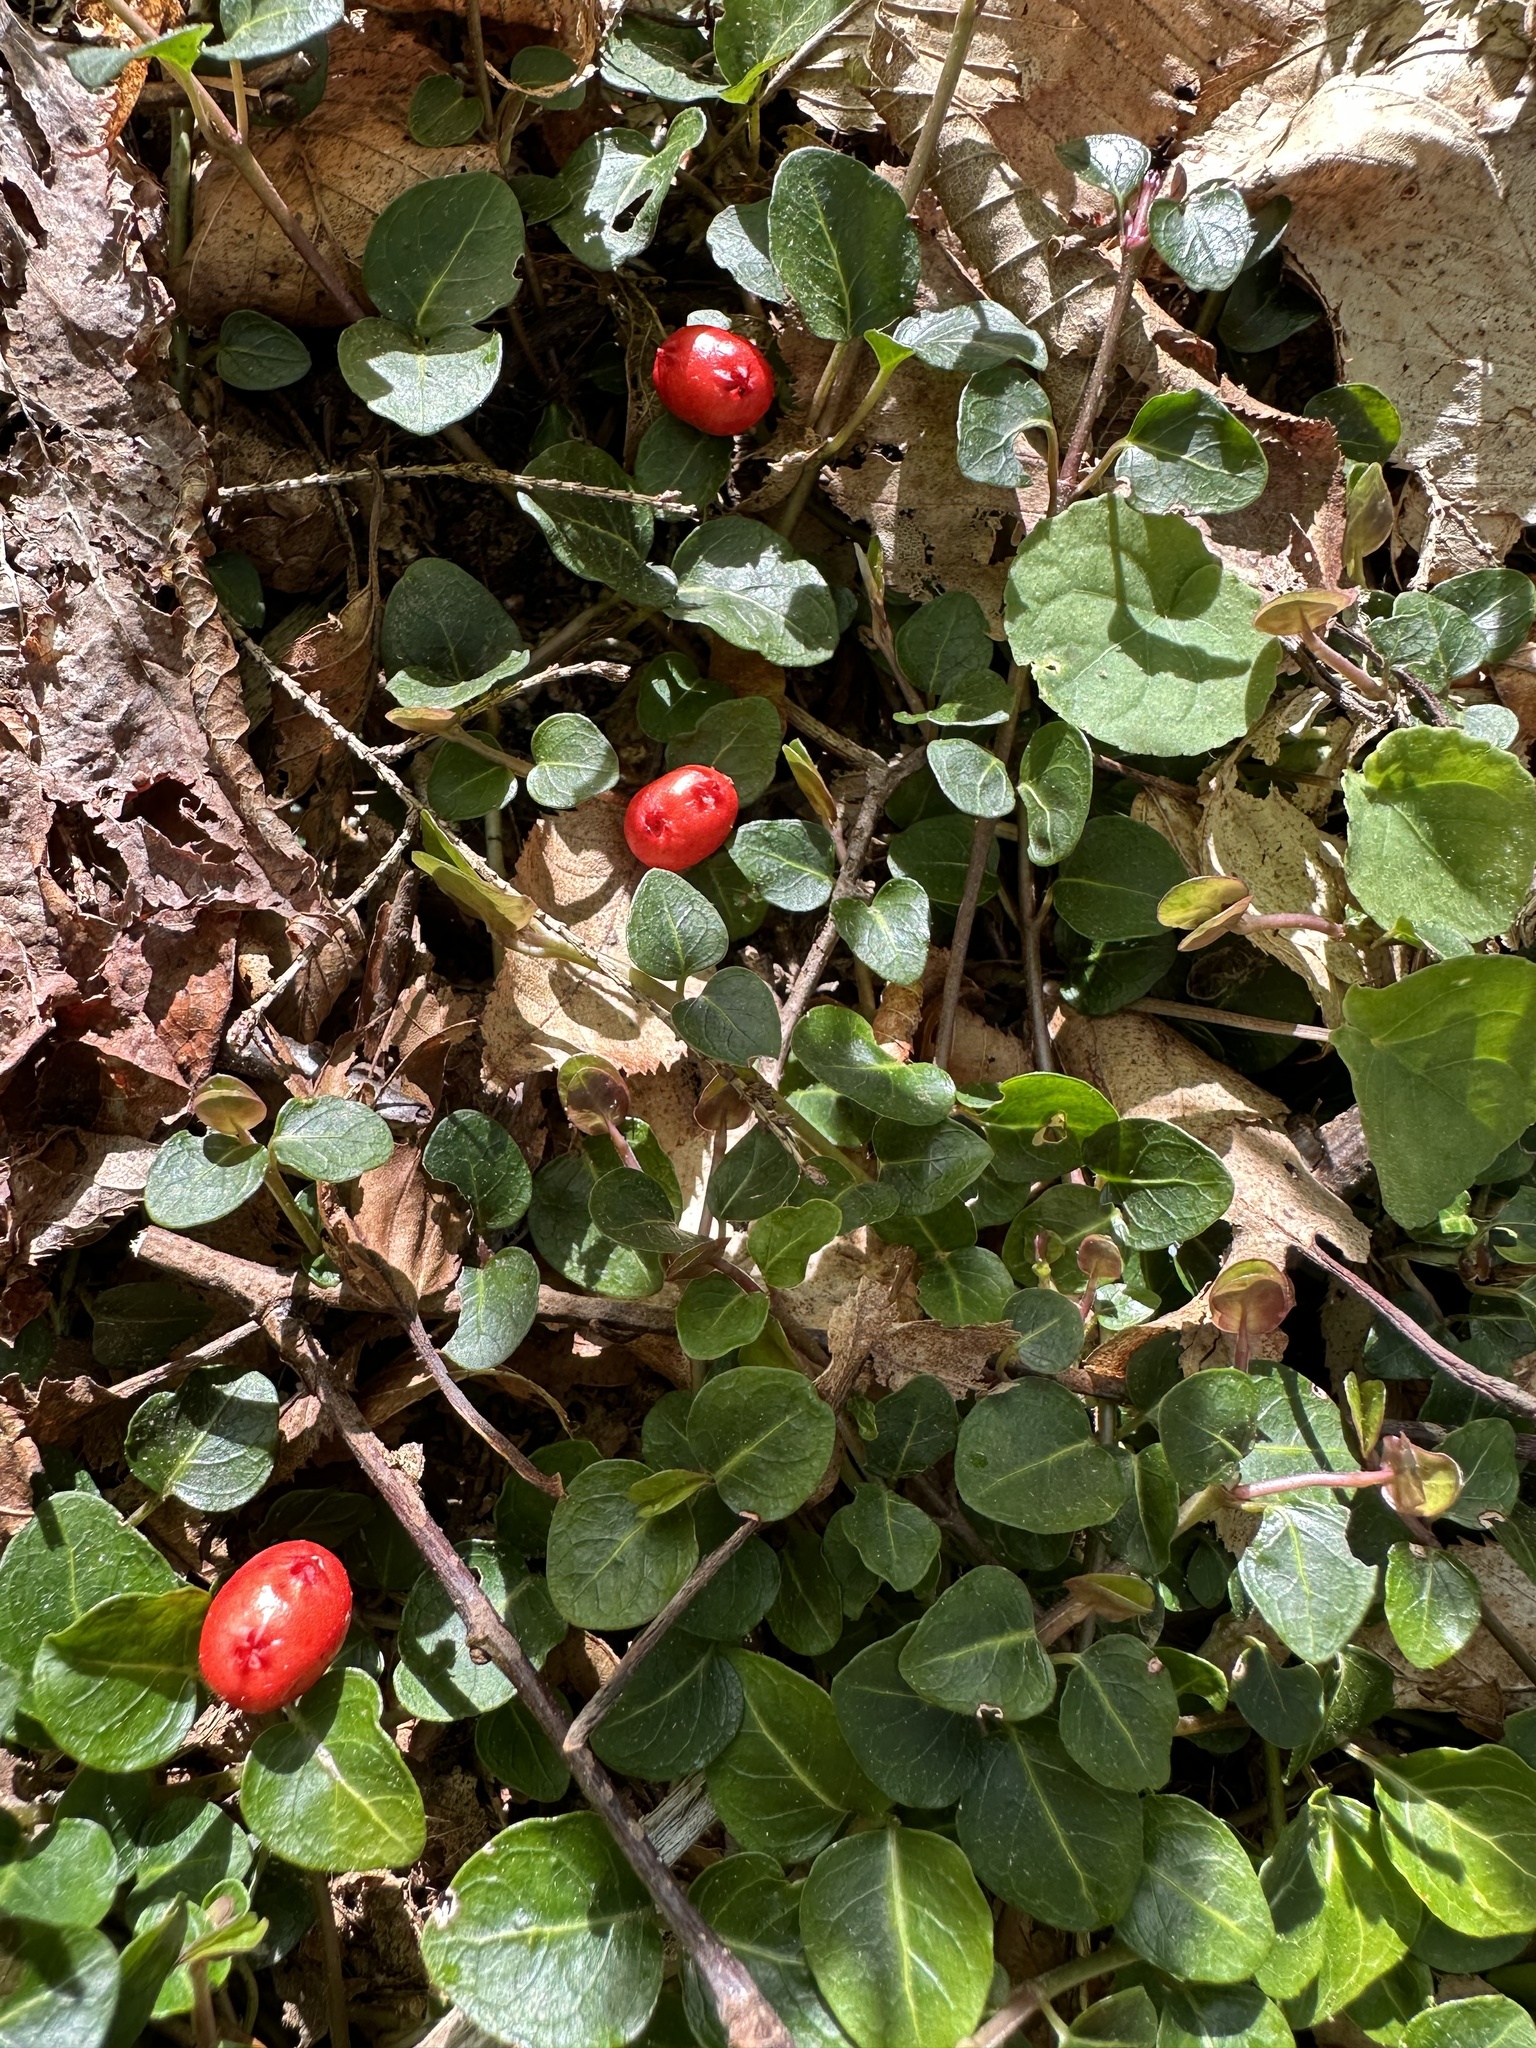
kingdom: Plantae
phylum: Tracheophyta
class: Magnoliopsida
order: Gentianales
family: Rubiaceae
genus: Mitchella
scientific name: Mitchella repens
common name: Partridge-berry
